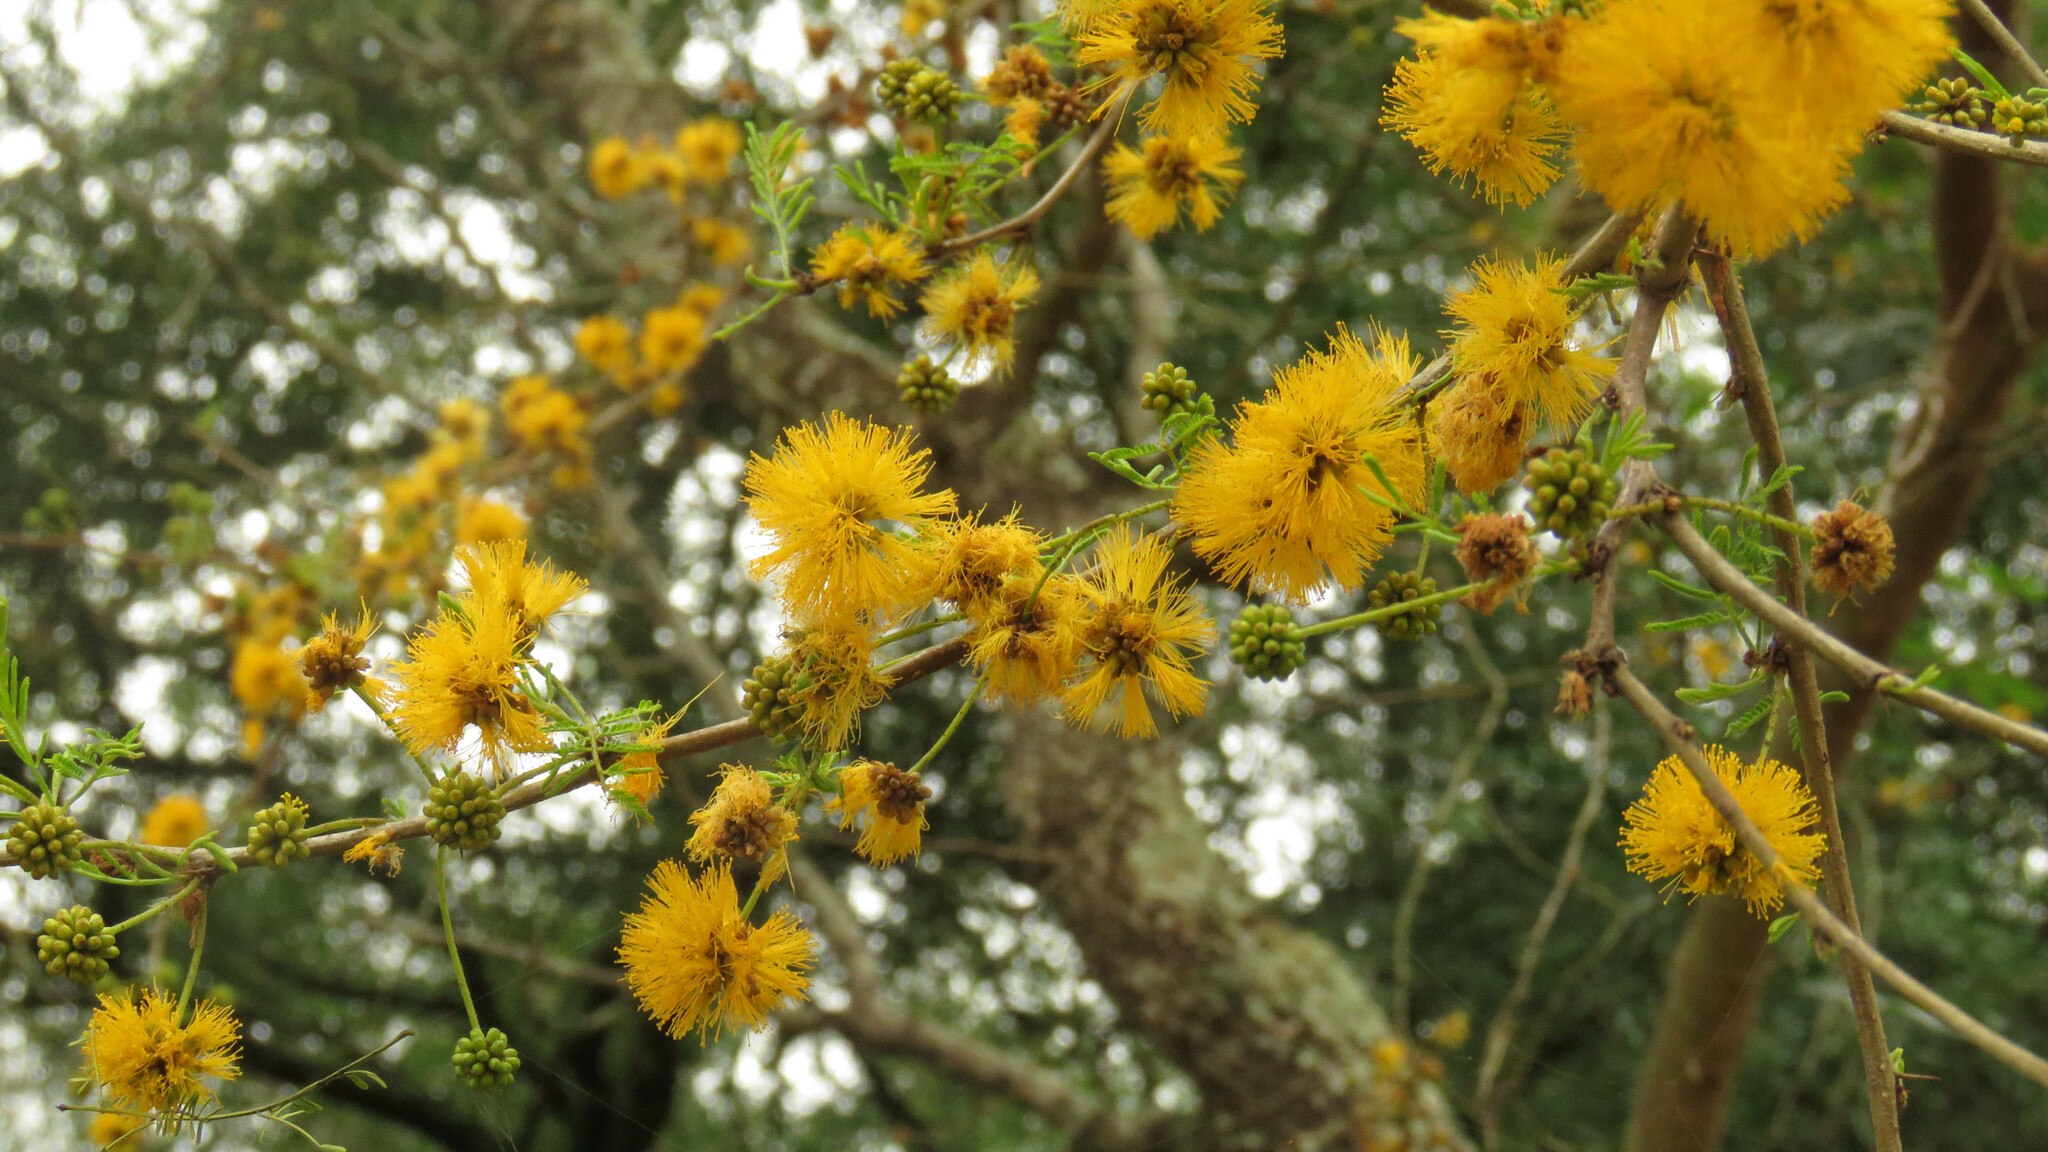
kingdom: Plantae
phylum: Tracheophyta
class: Magnoliopsida
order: Fabales
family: Fabaceae
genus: Vachellia
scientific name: Vachellia caven
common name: Roman cassie
